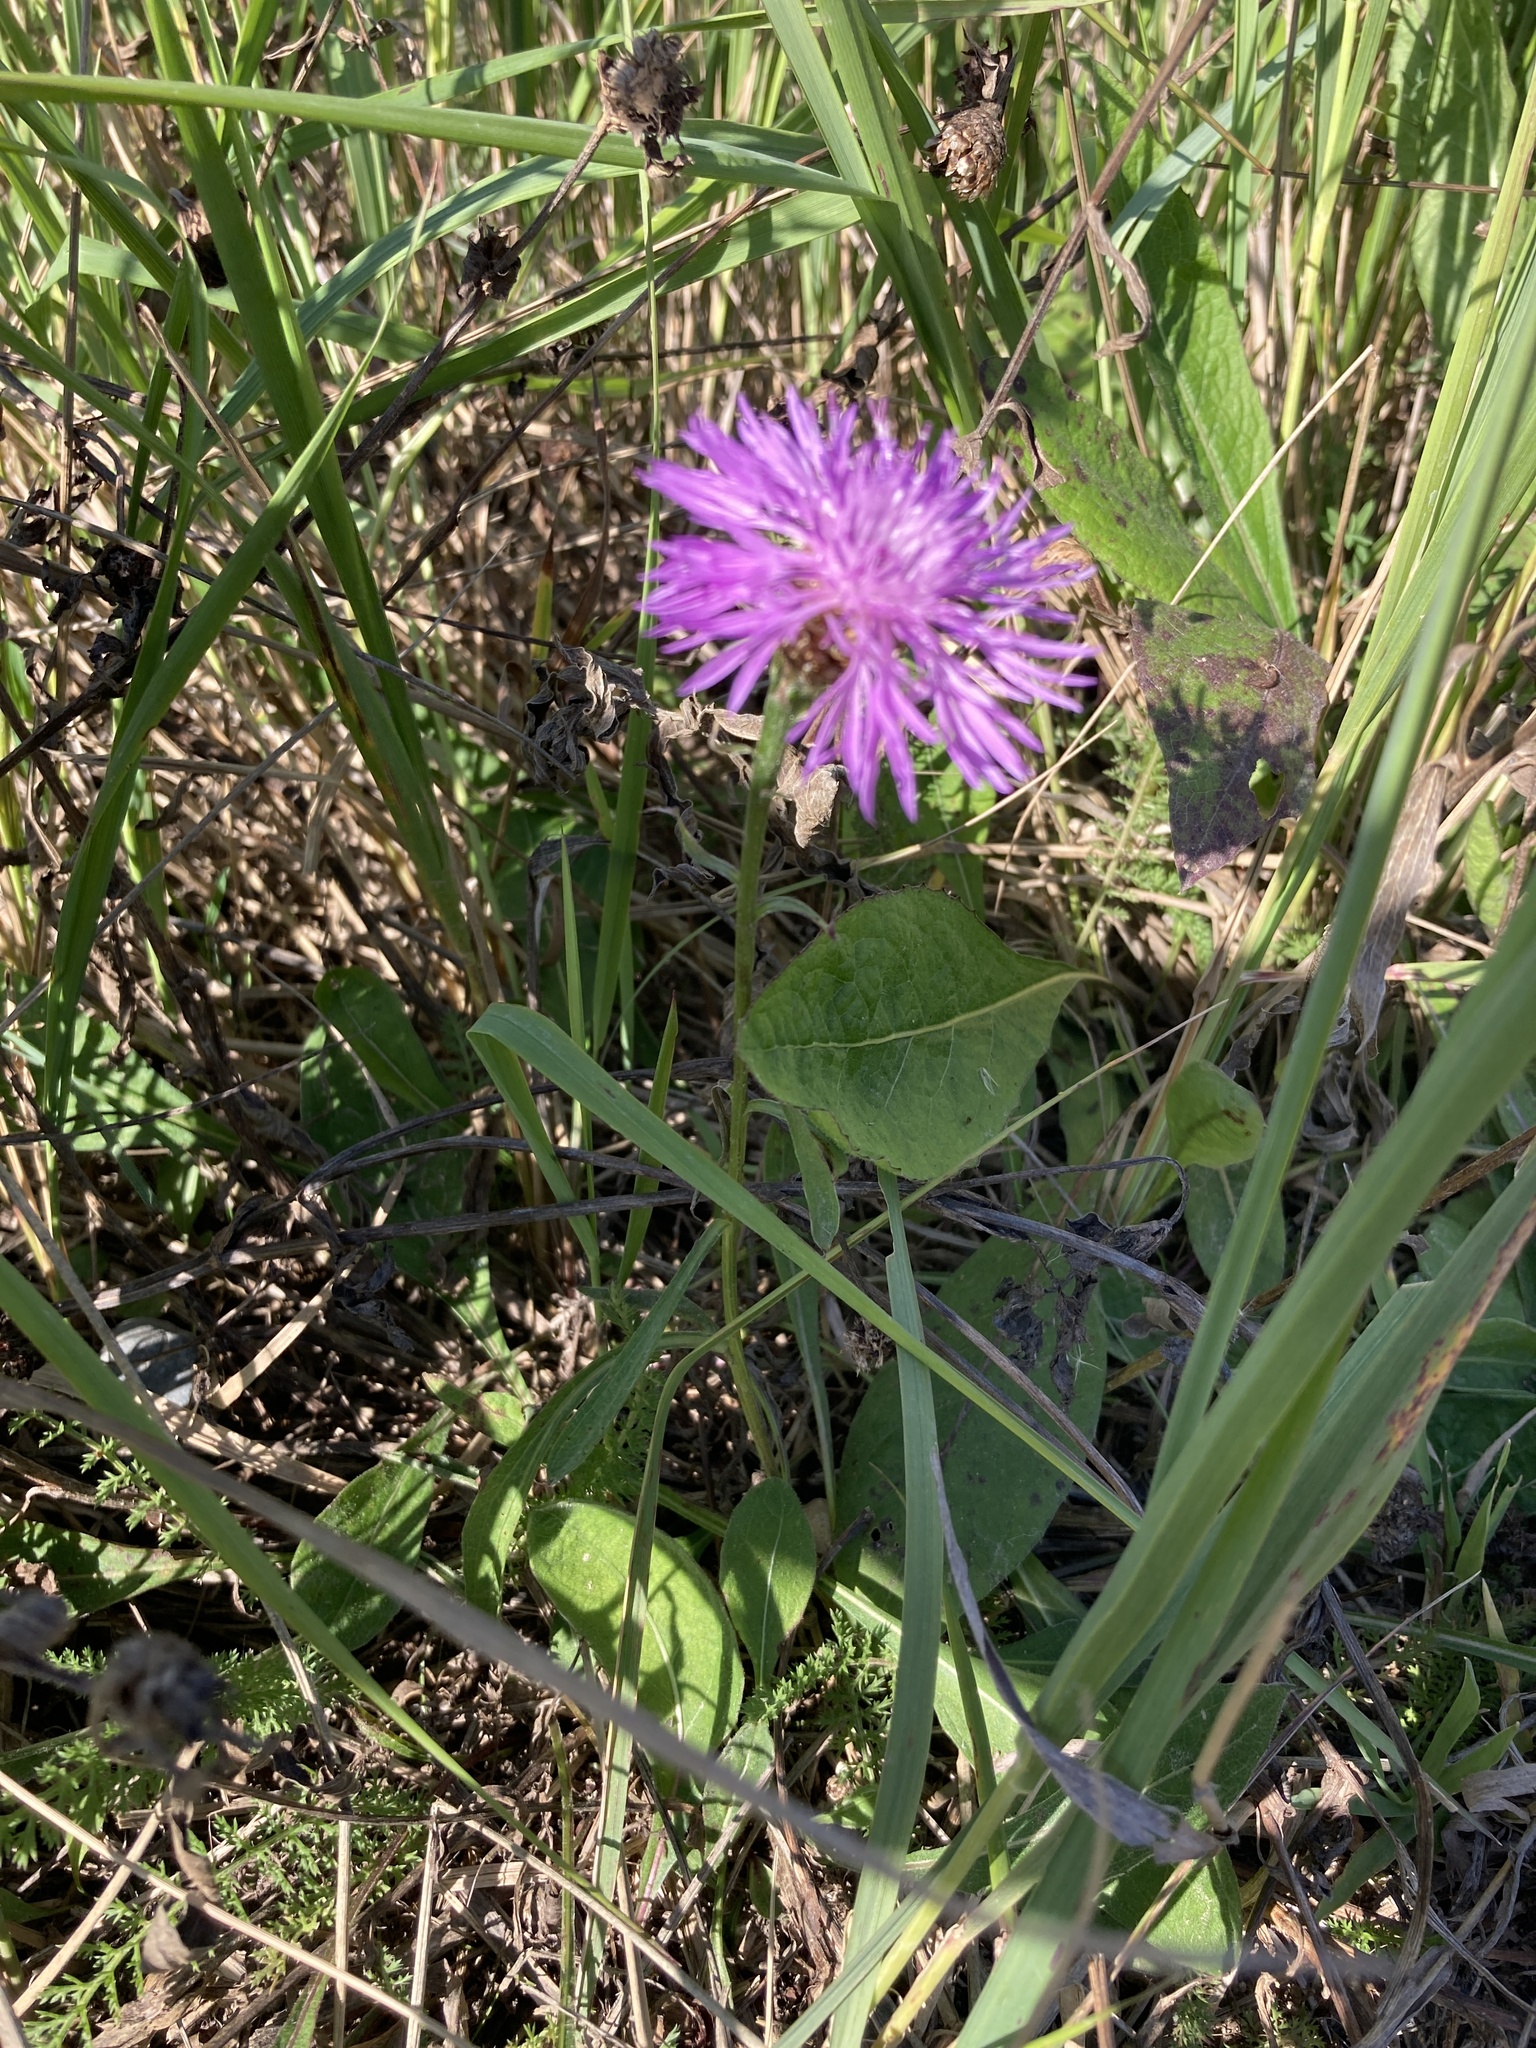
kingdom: Plantae
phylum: Tracheophyta
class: Magnoliopsida
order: Asterales
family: Asteraceae
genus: Centaurea
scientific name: Centaurea jacea
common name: Brown knapweed
